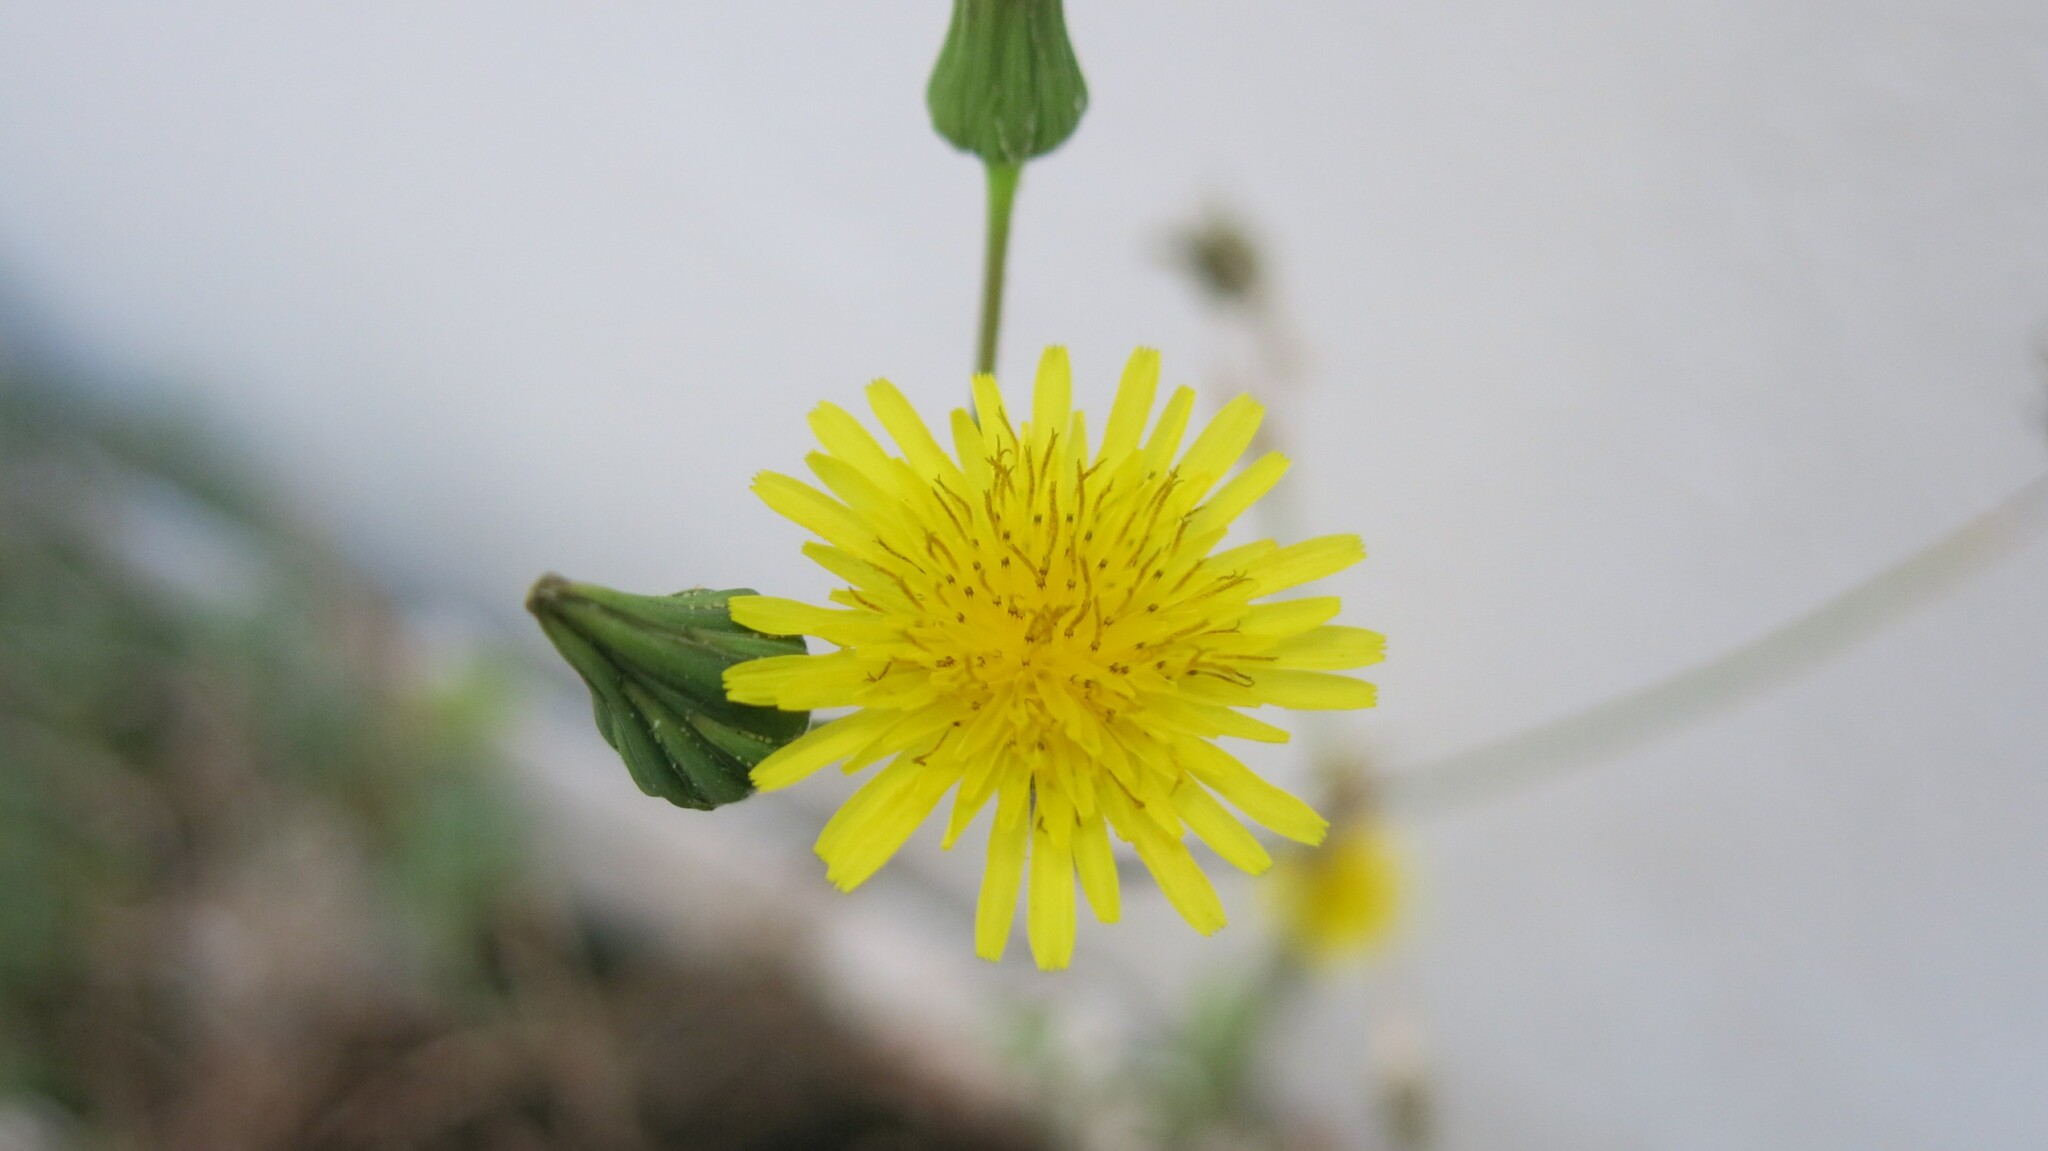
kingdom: Plantae
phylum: Tracheophyta
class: Magnoliopsida
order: Asterales
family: Asteraceae
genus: Sonchus
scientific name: Sonchus oleraceus
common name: Common sowthistle
